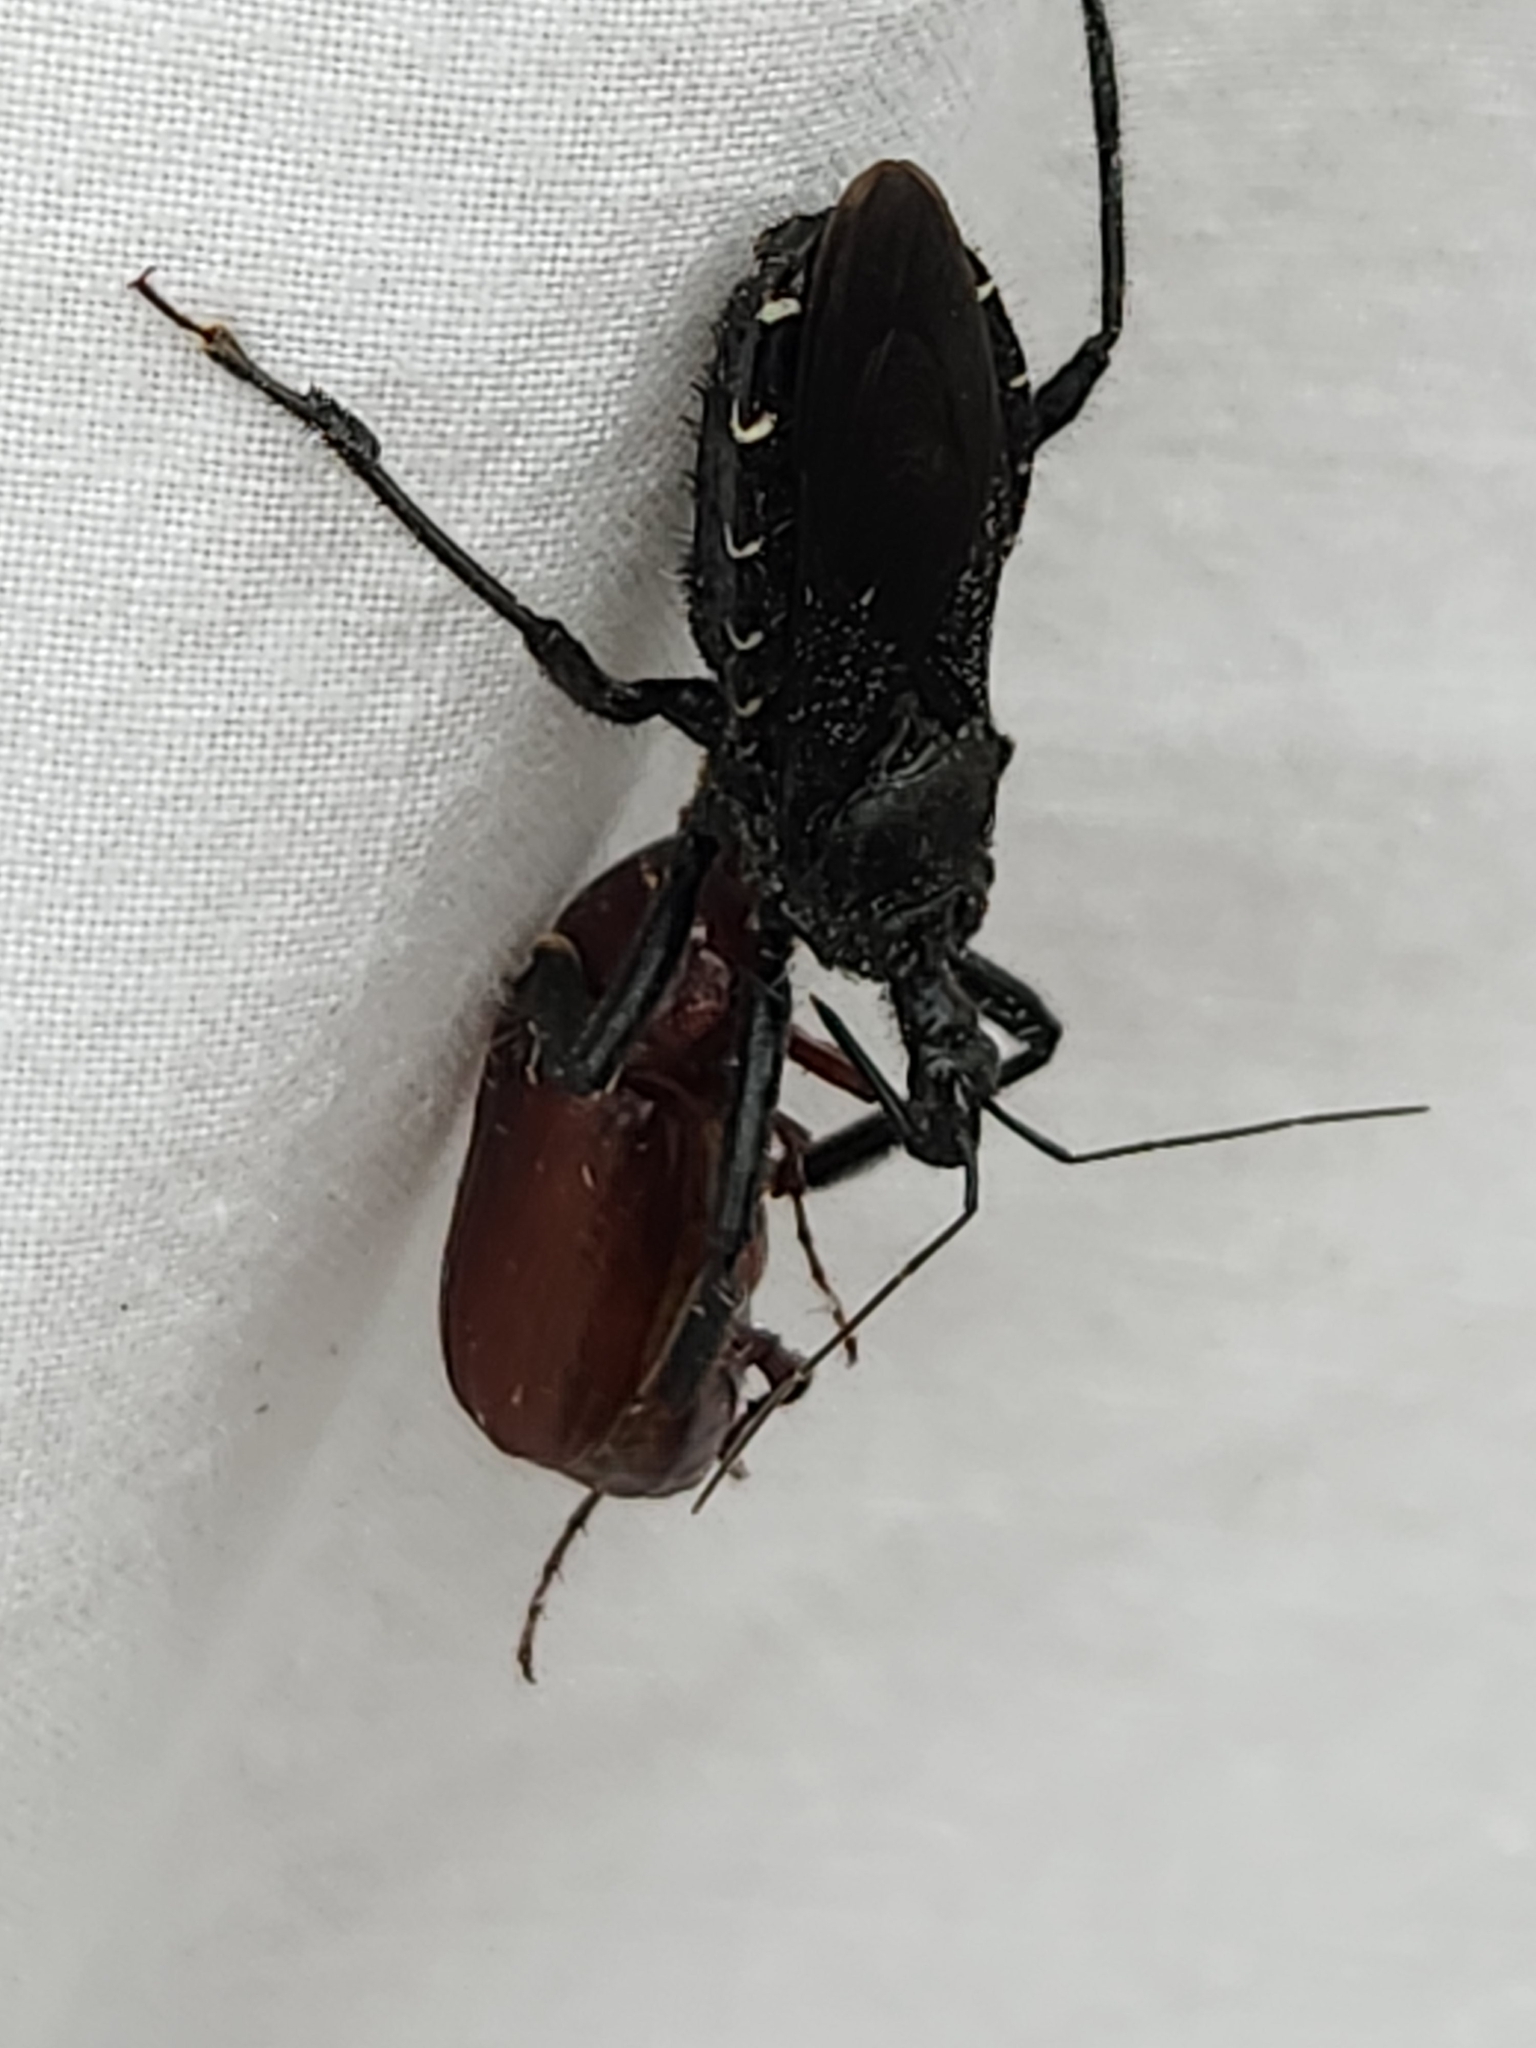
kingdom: Animalia
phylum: Arthropoda
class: Insecta
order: Hemiptera
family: Reduviidae
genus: Apiomerus
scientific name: Apiomerus longispinis
